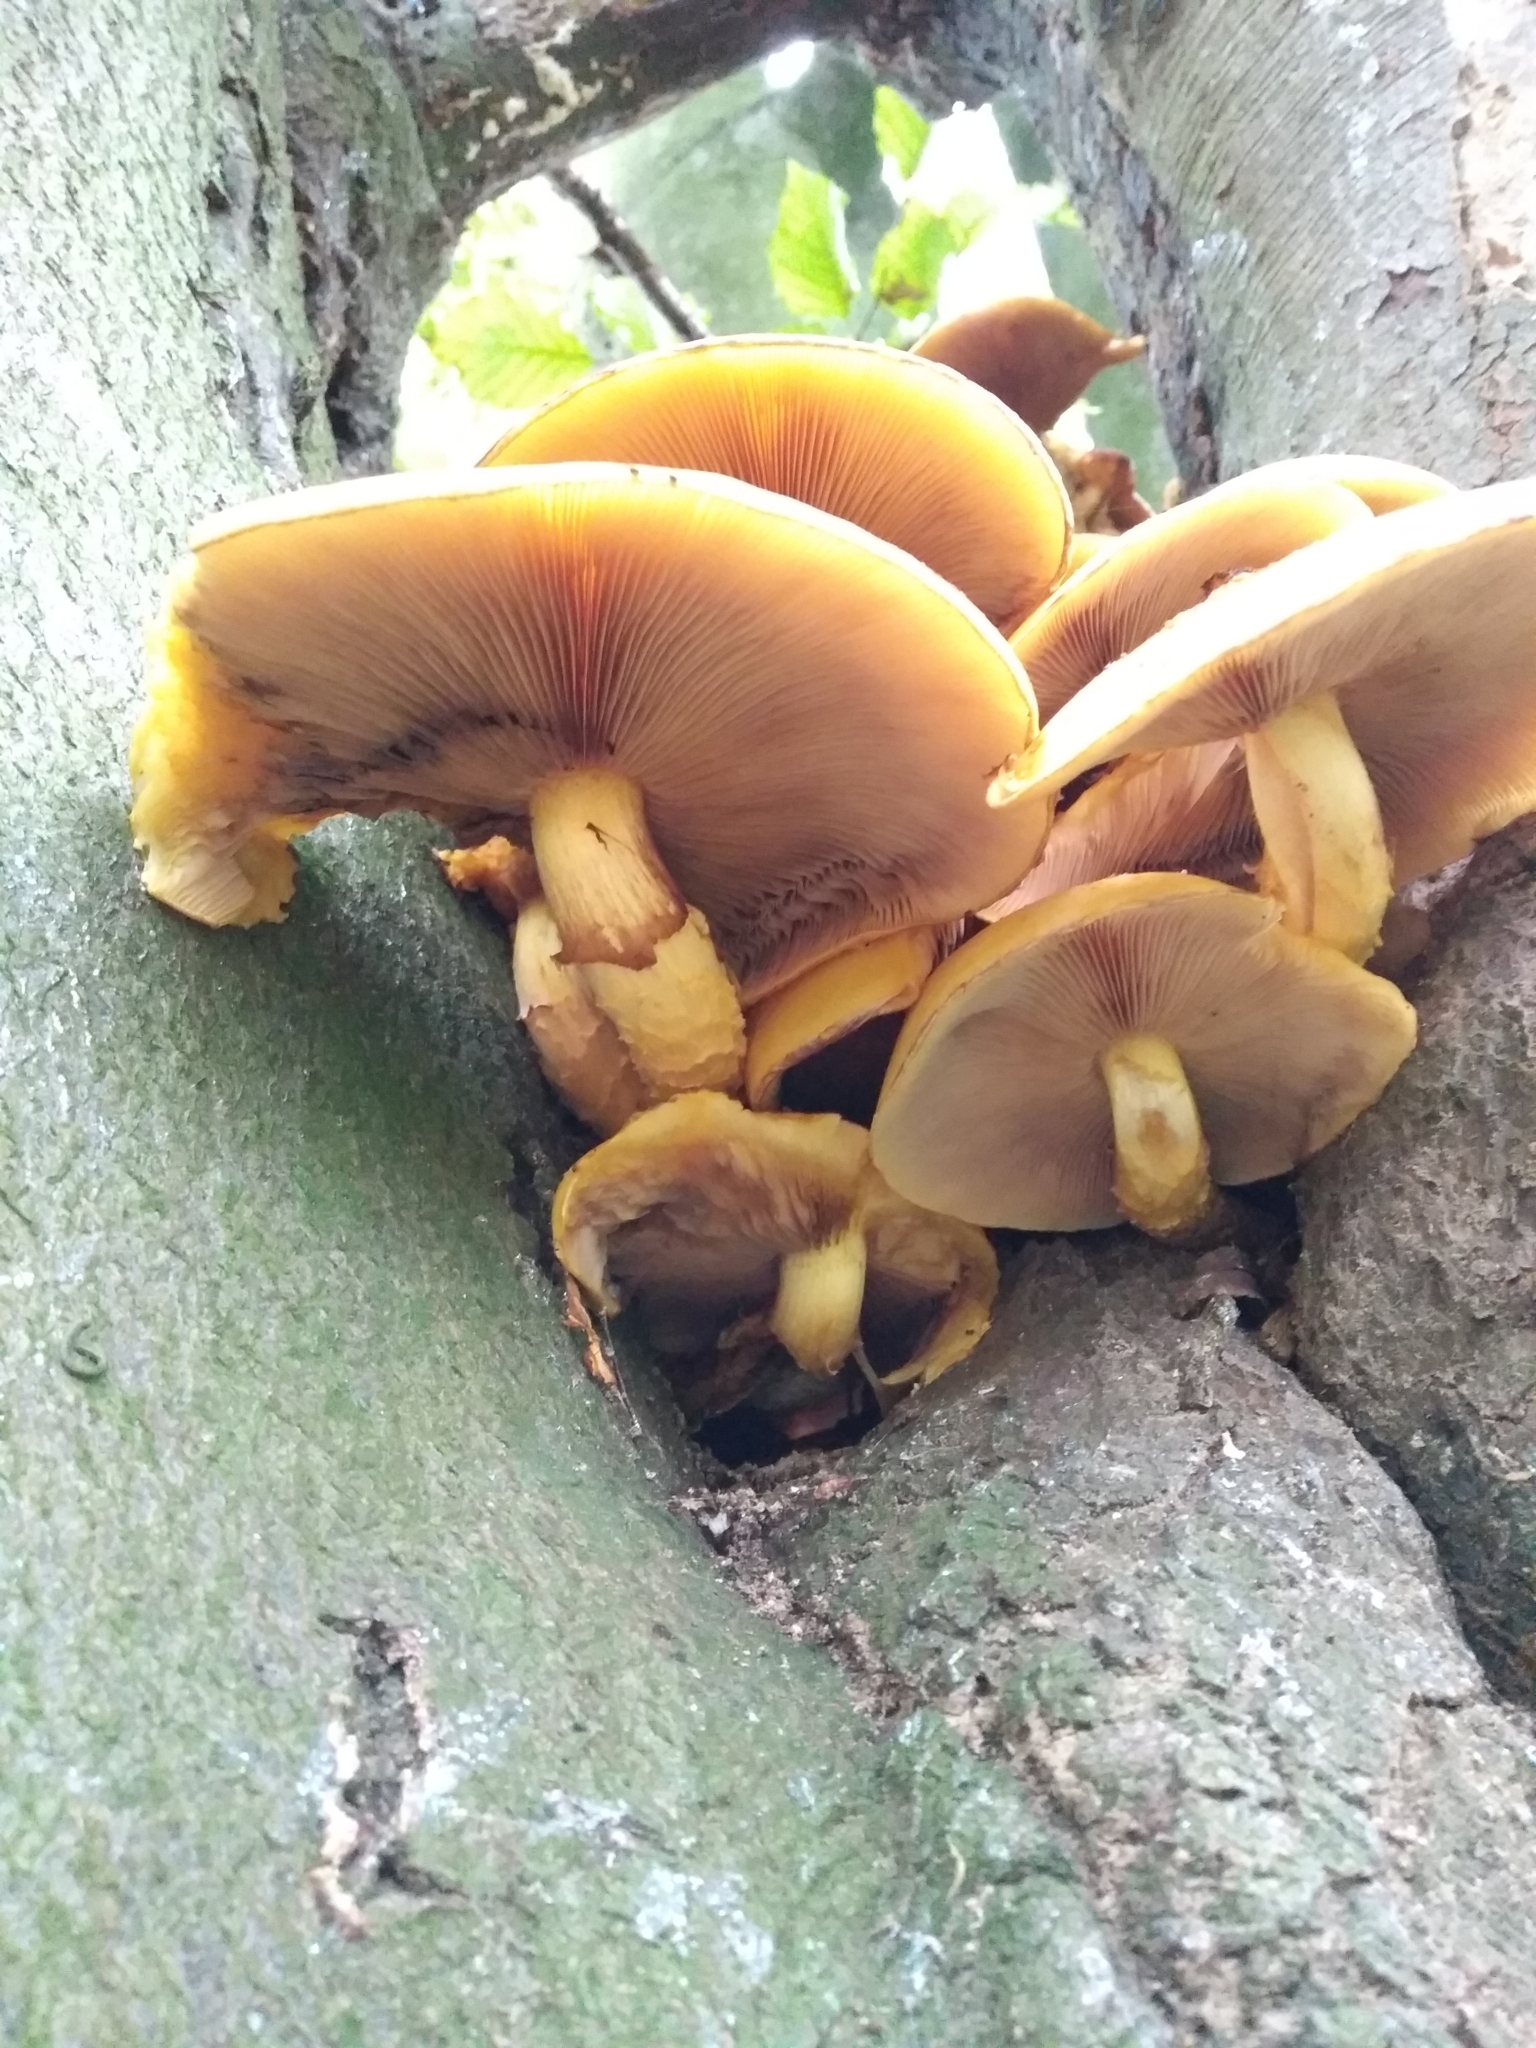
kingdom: Fungi
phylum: Basidiomycota
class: Agaricomycetes
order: Agaricales
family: Strophariaceae
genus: Pholiota
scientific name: Pholiota aurivella
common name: Golden scalycap
